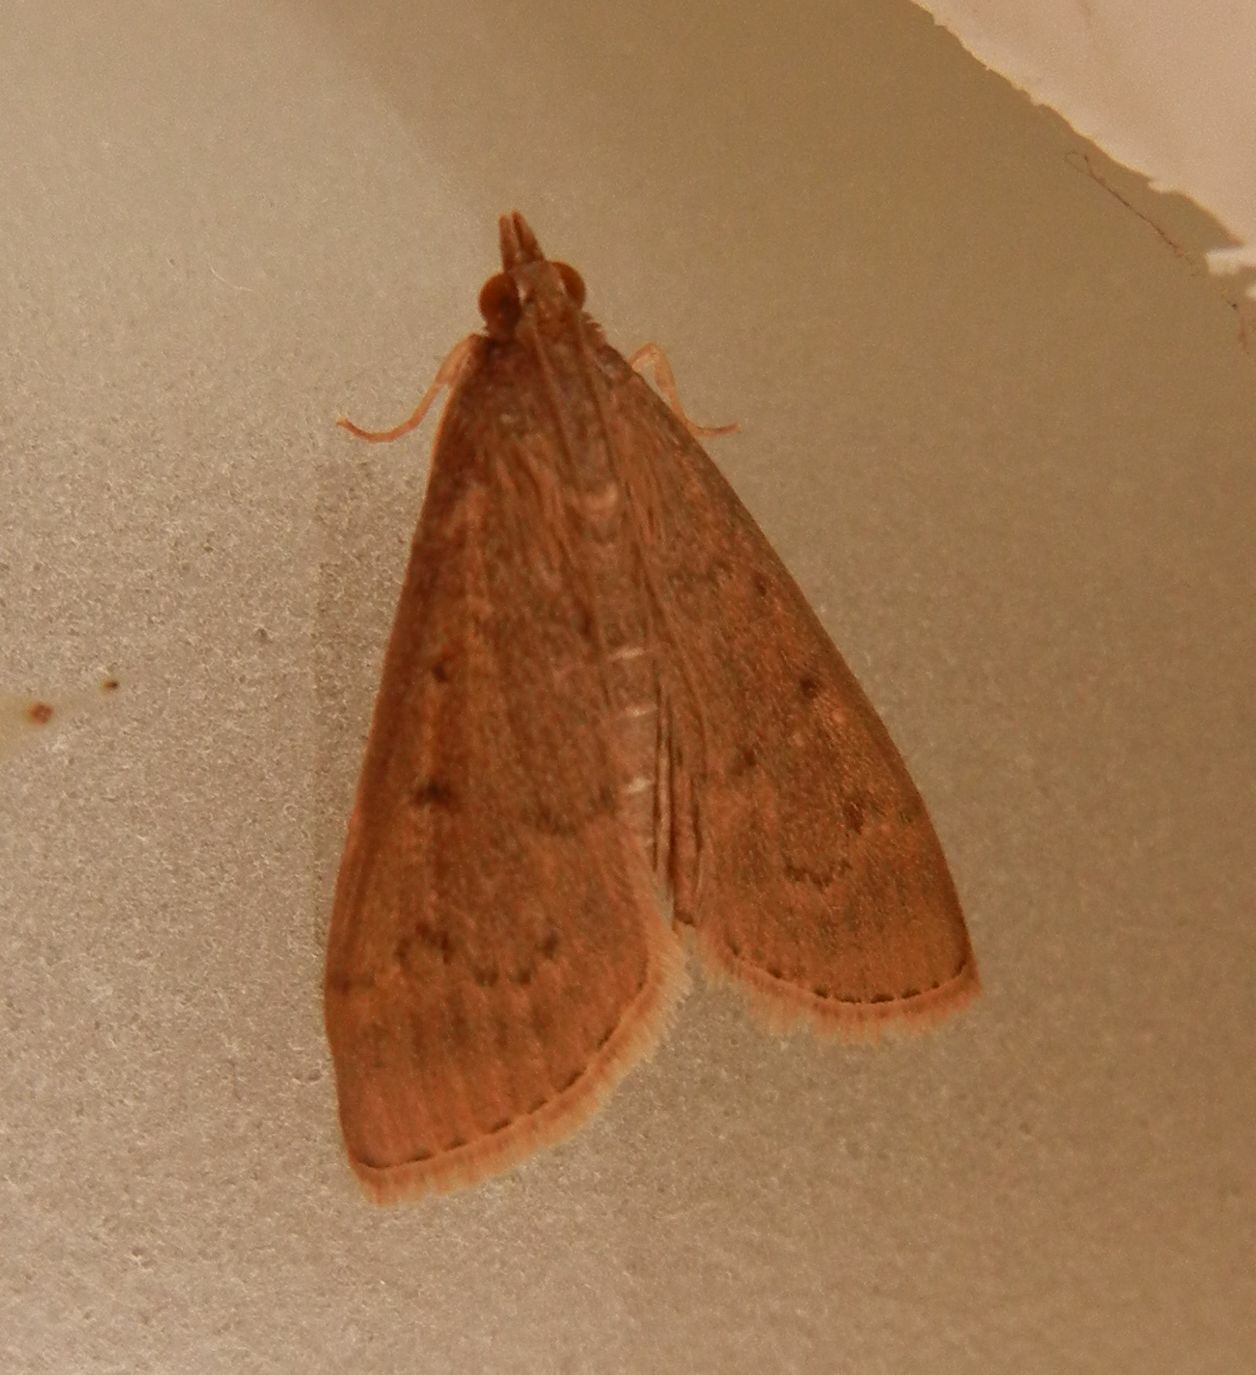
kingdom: Animalia
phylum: Arthropoda
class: Insecta
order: Lepidoptera
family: Crambidae
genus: Herpetogramma
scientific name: Herpetogramma licarsisalis
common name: Grass webworm
